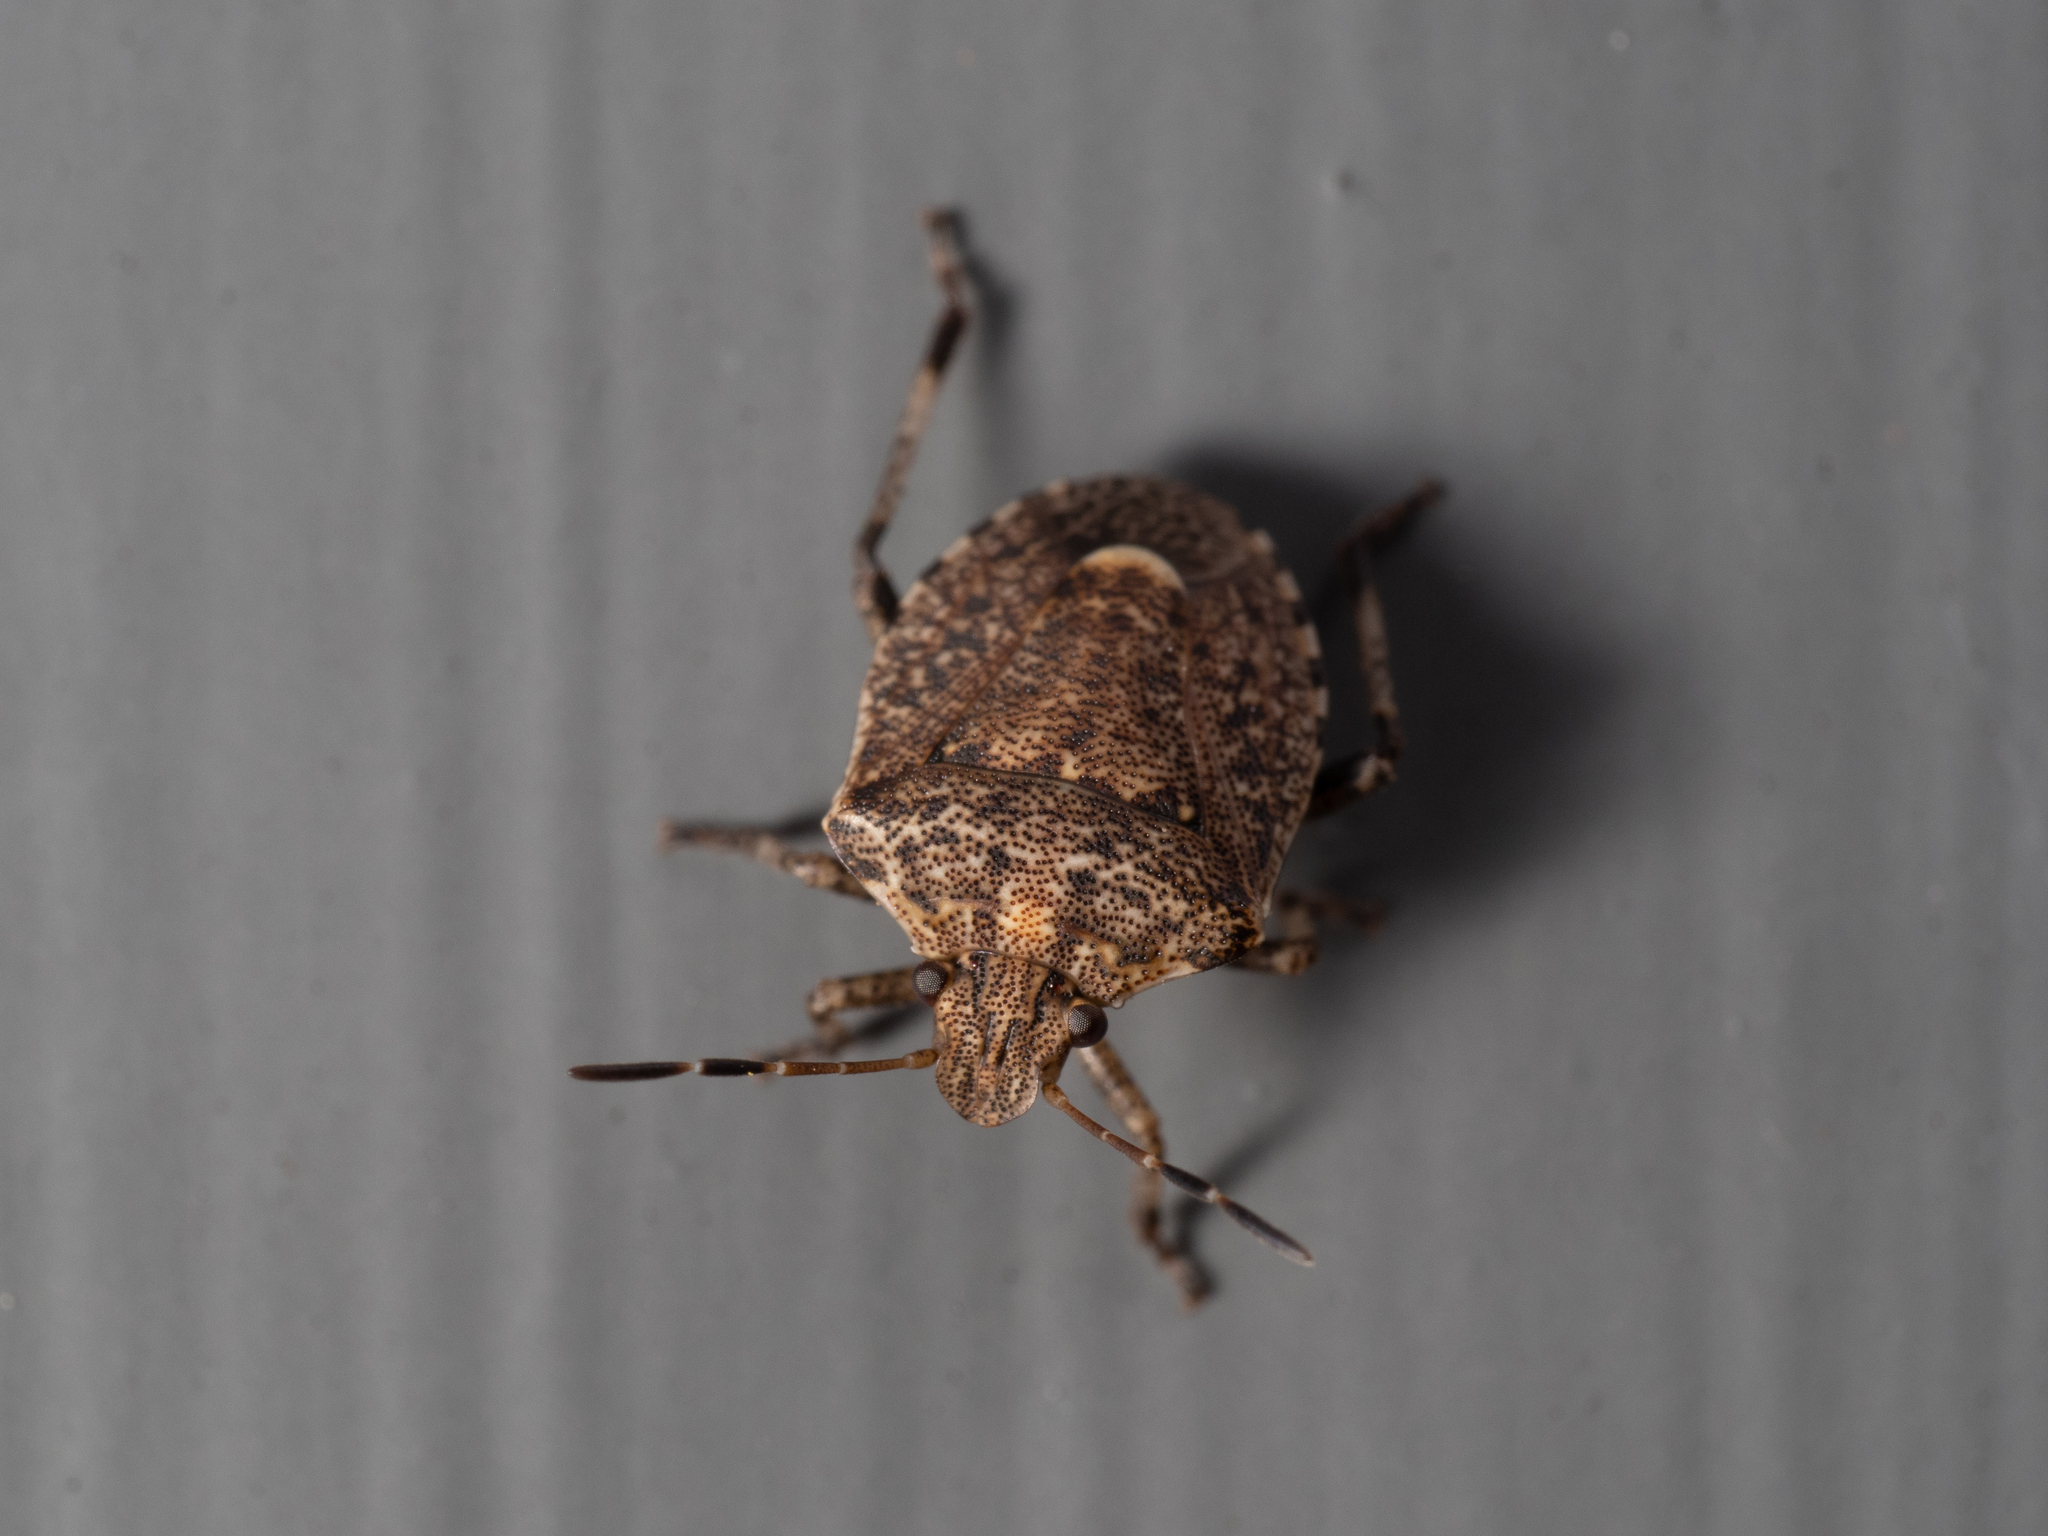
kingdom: Animalia
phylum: Arthropoda
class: Insecta
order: Hemiptera
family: Pentatomidae
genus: Kalkadoona
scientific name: Kalkadoona
